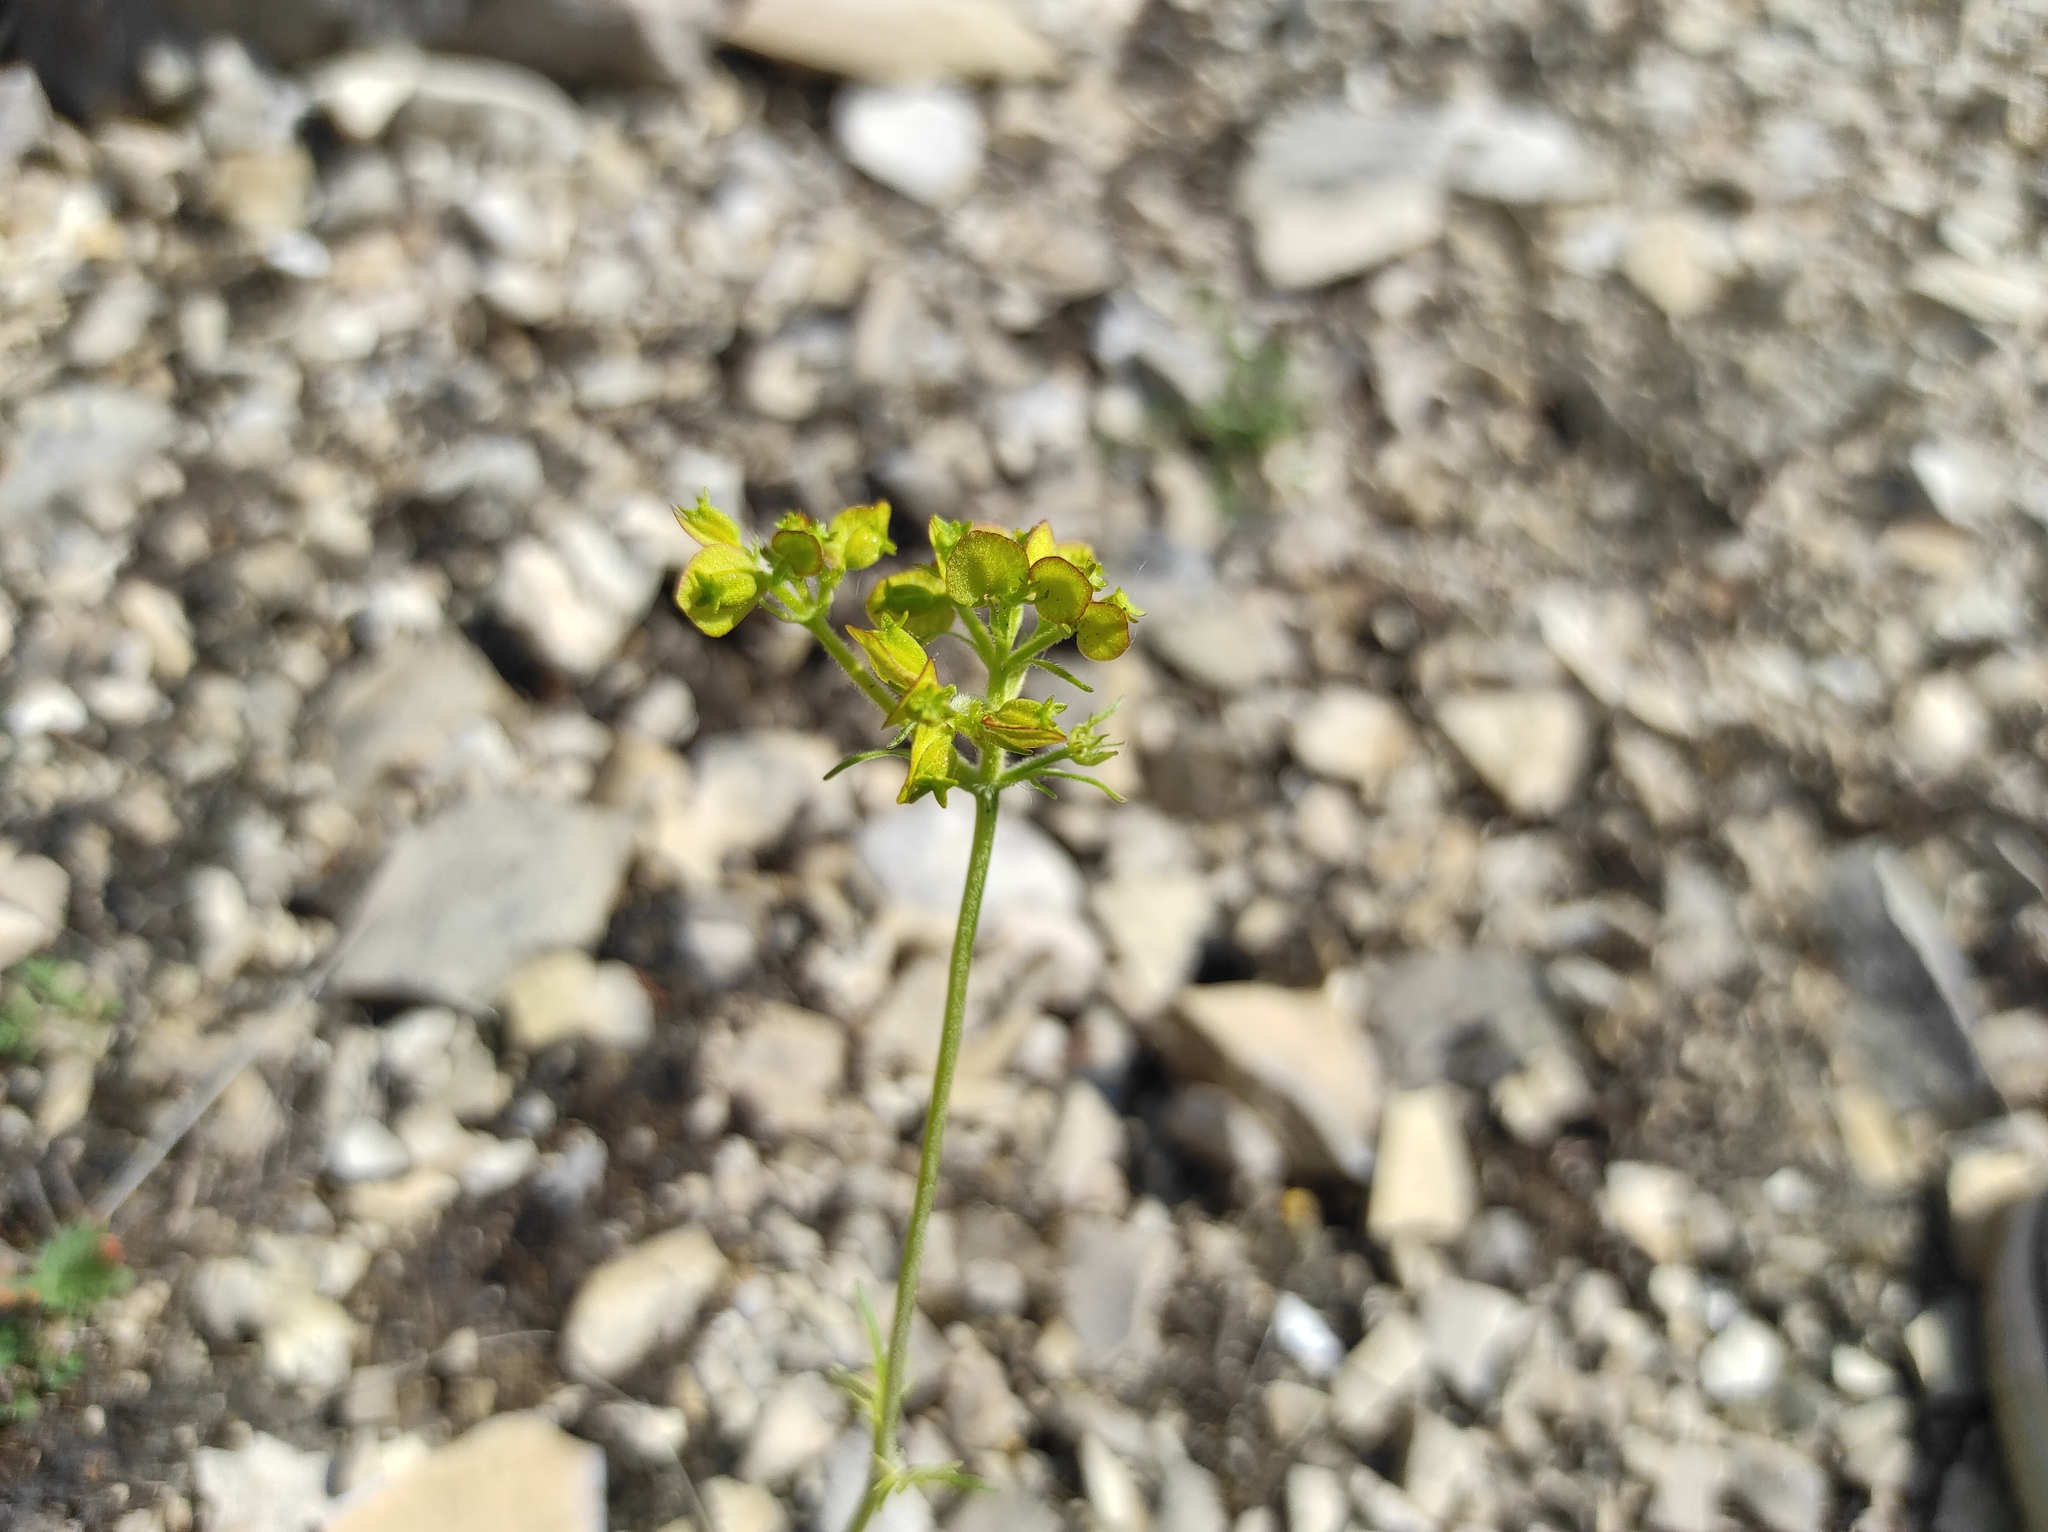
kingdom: Plantae
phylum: Tracheophyta
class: Magnoliopsida
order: Dipsacales
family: Caprifoliaceae
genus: Patrinia
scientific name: Patrinia sibirica
